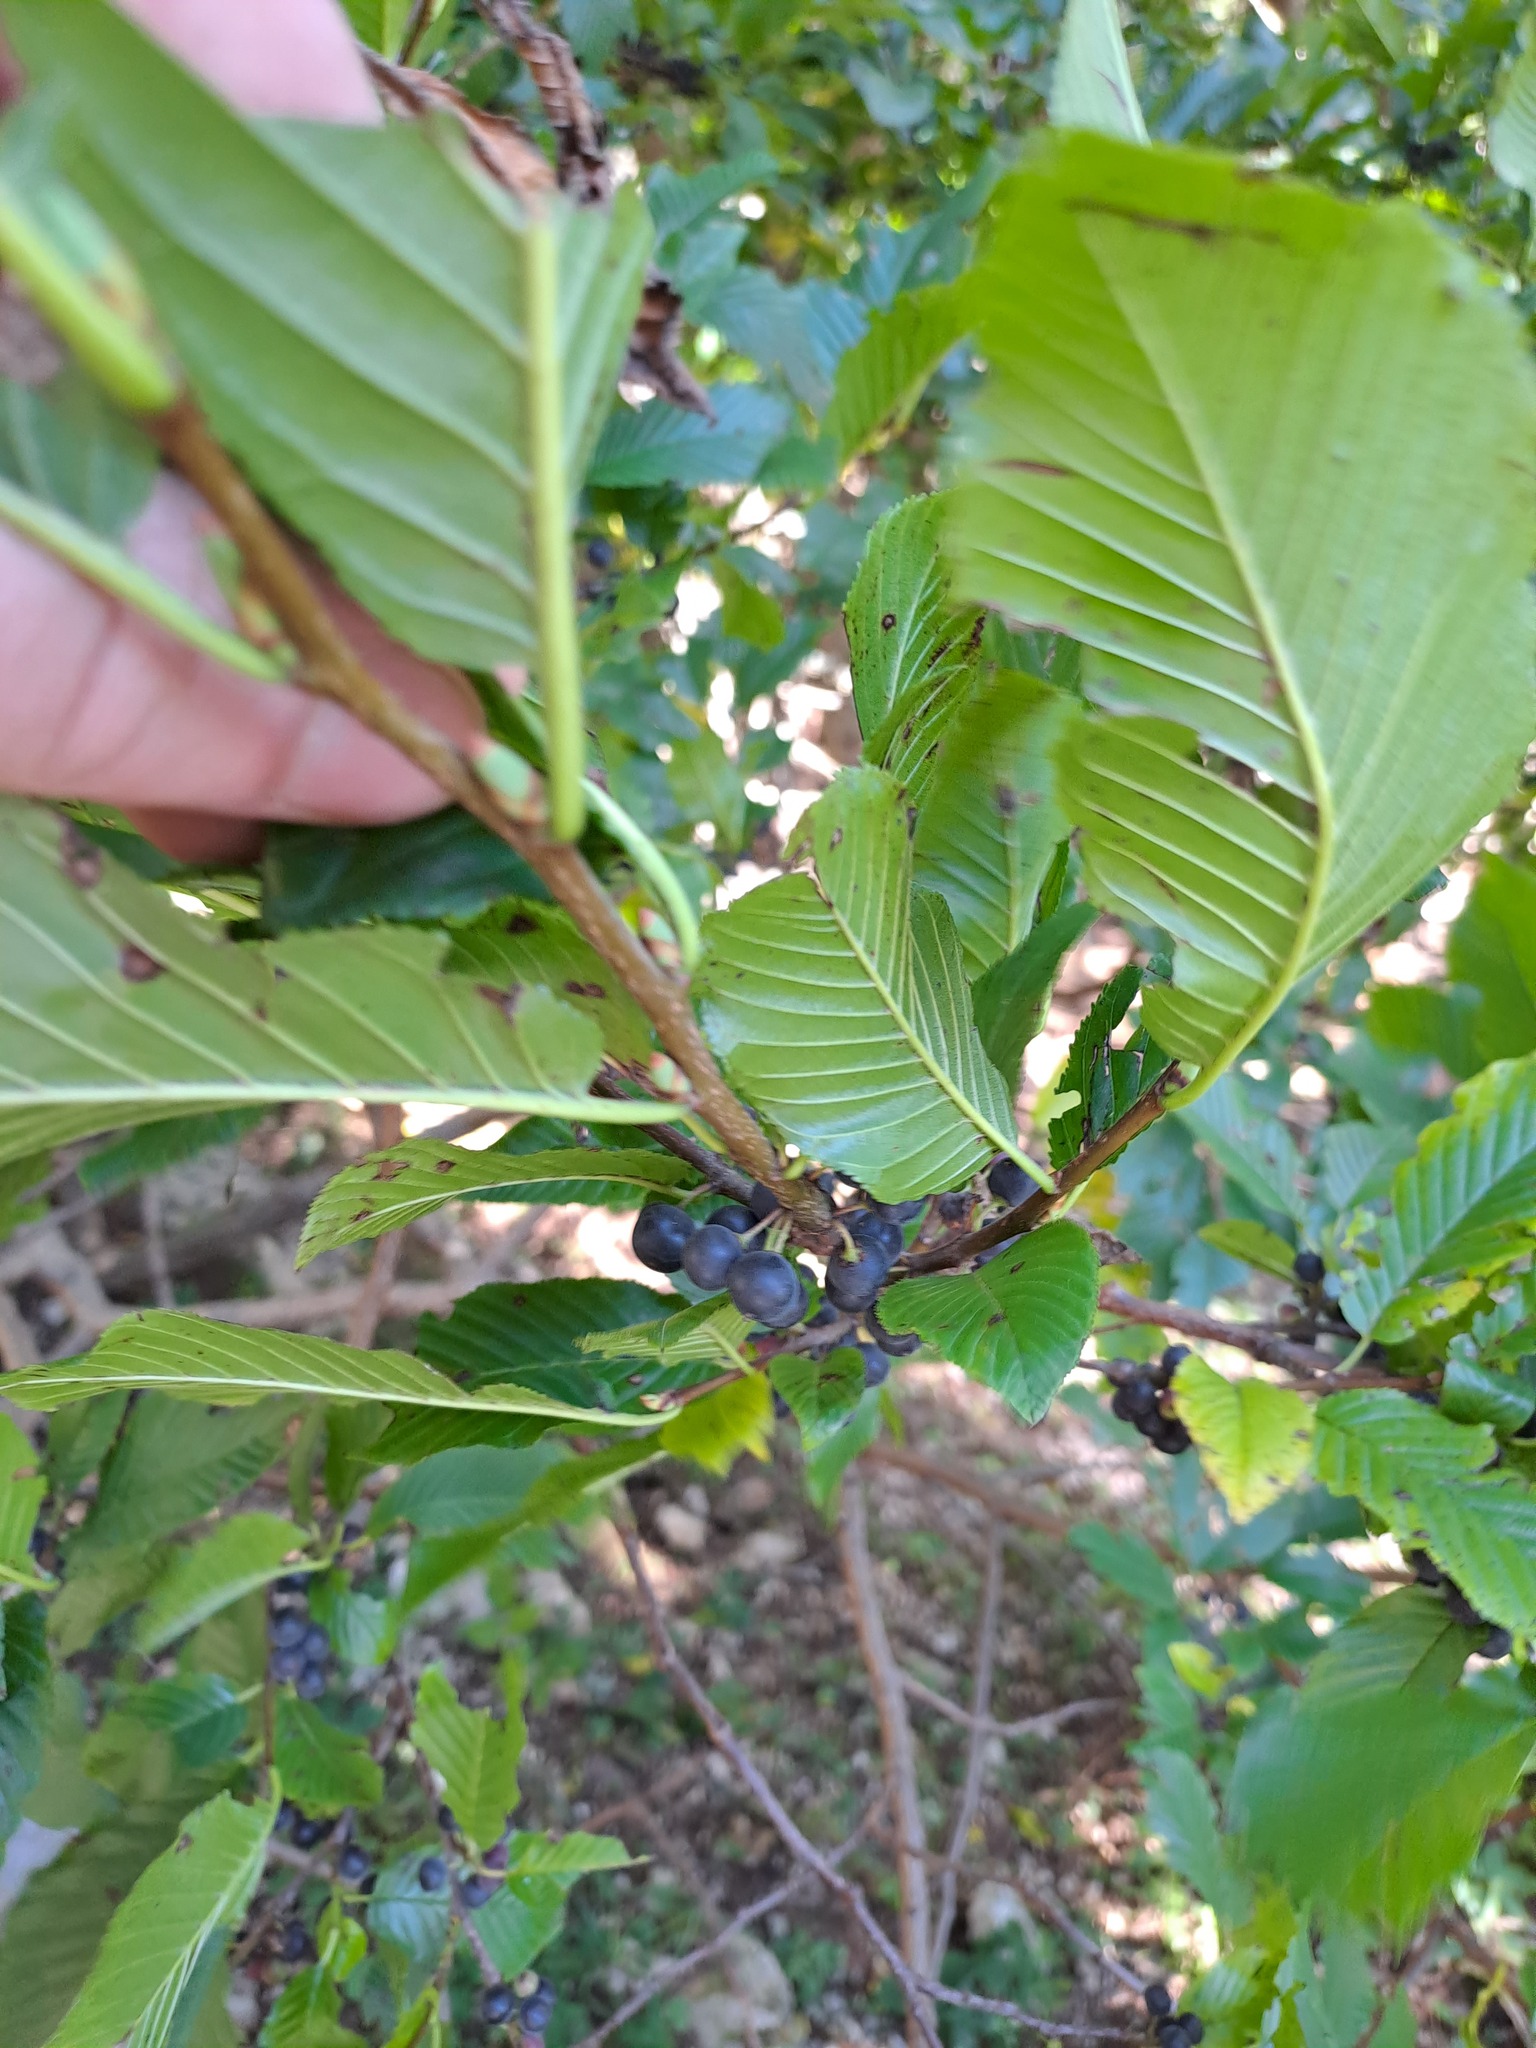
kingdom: Plantae
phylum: Tracheophyta
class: Magnoliopsida
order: Rosales
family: Rhamnaceae
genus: Atadinus
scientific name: Atadinus fallax
